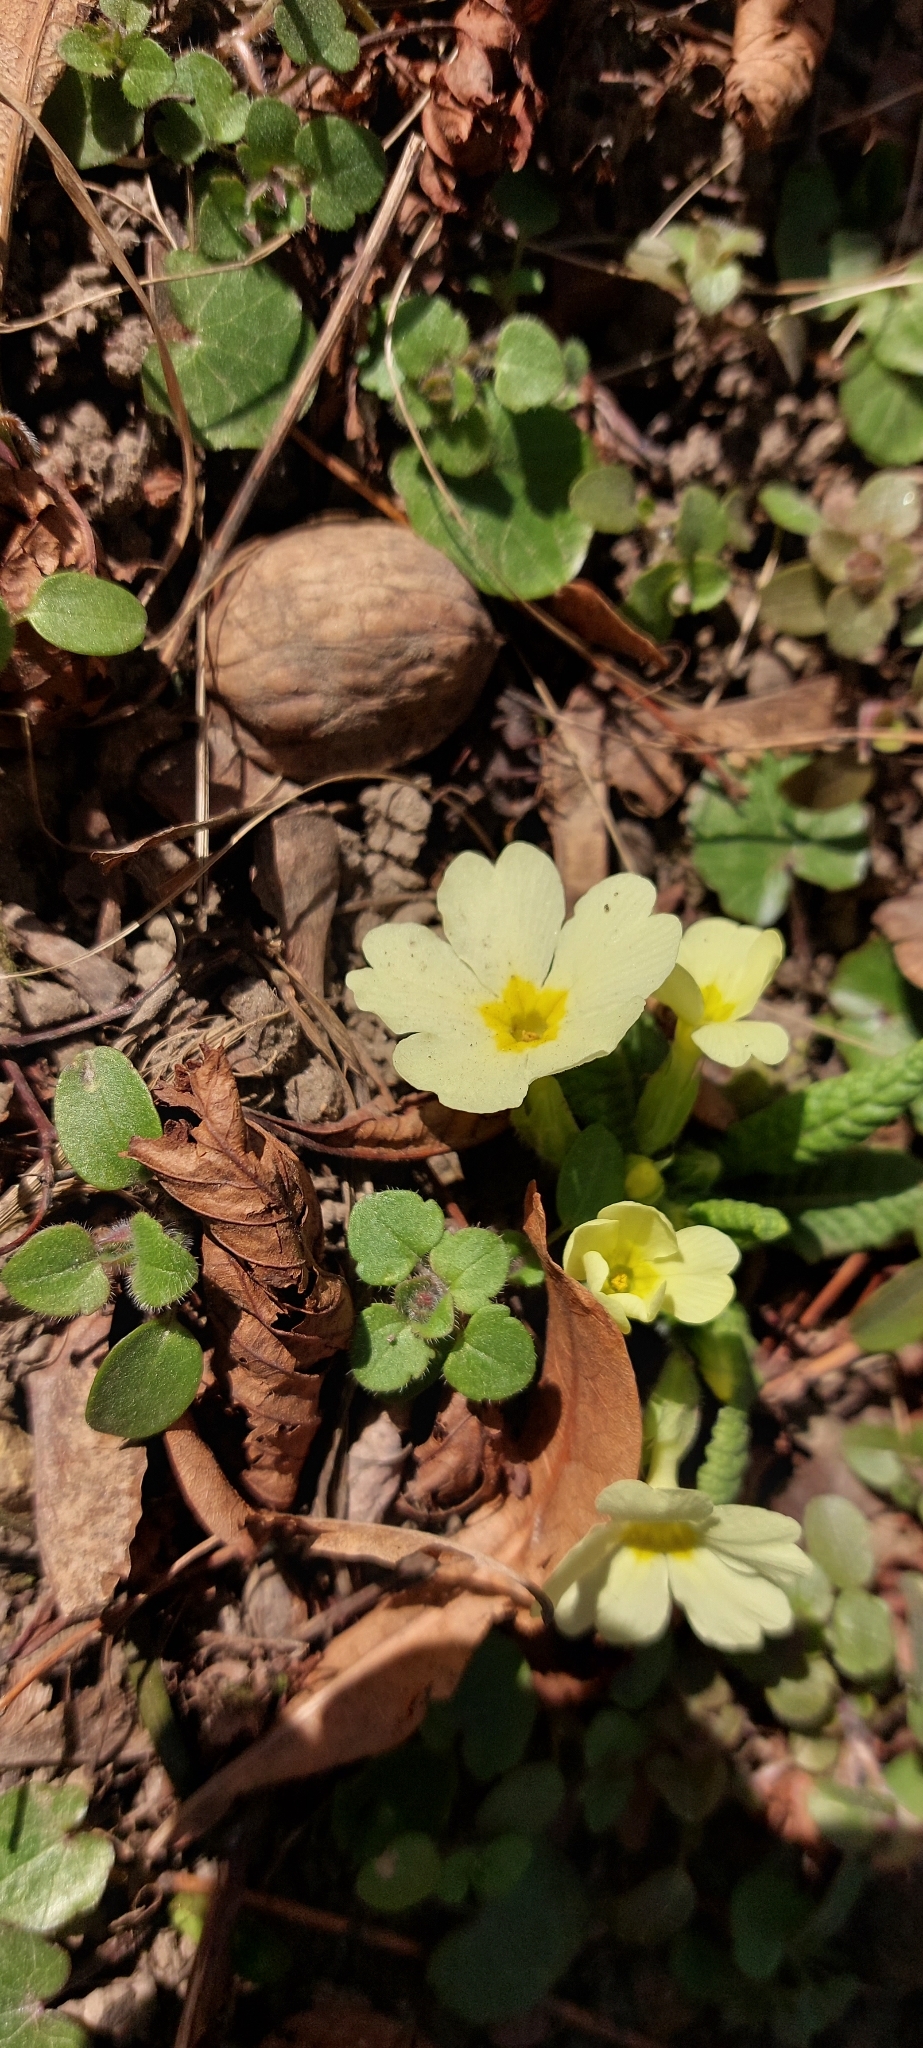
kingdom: Plantae
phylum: Tracheophyta
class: Magnoliopsida
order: Ericales
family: Primulaceae
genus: Primula
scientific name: Primula vulgaris
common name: Primrose
